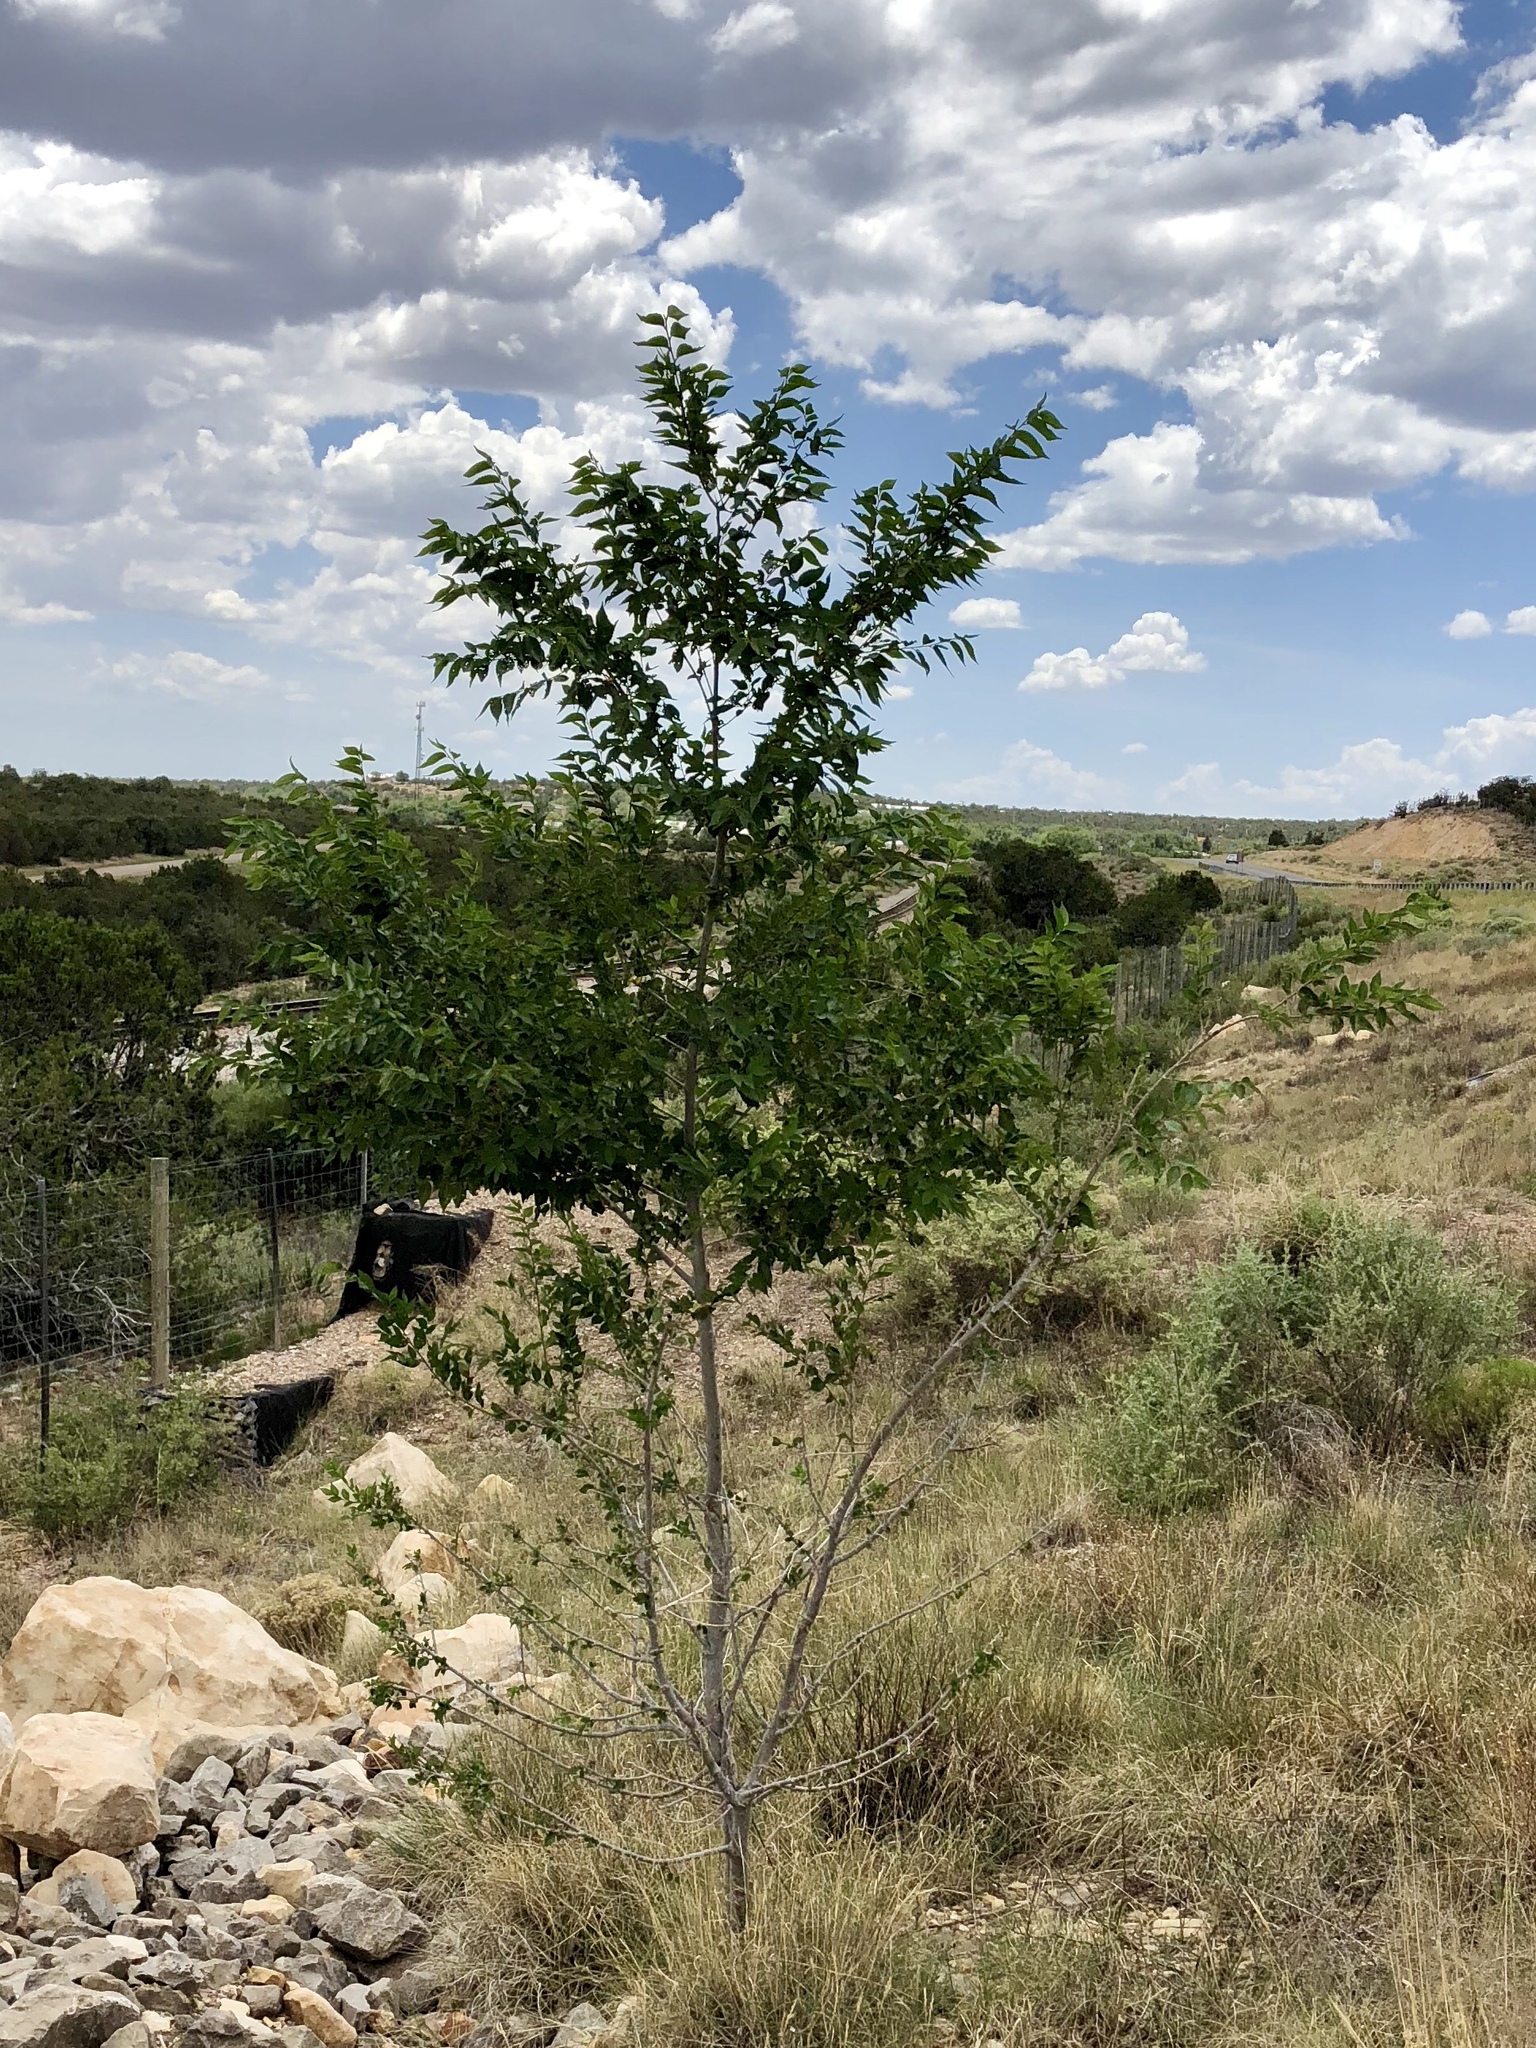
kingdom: Plantae
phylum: Tracheophyta
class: Magnoliopsida
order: Rosales
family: Ulmaceae
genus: Ulmus
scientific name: Ulmus pumila
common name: Siberian elm
